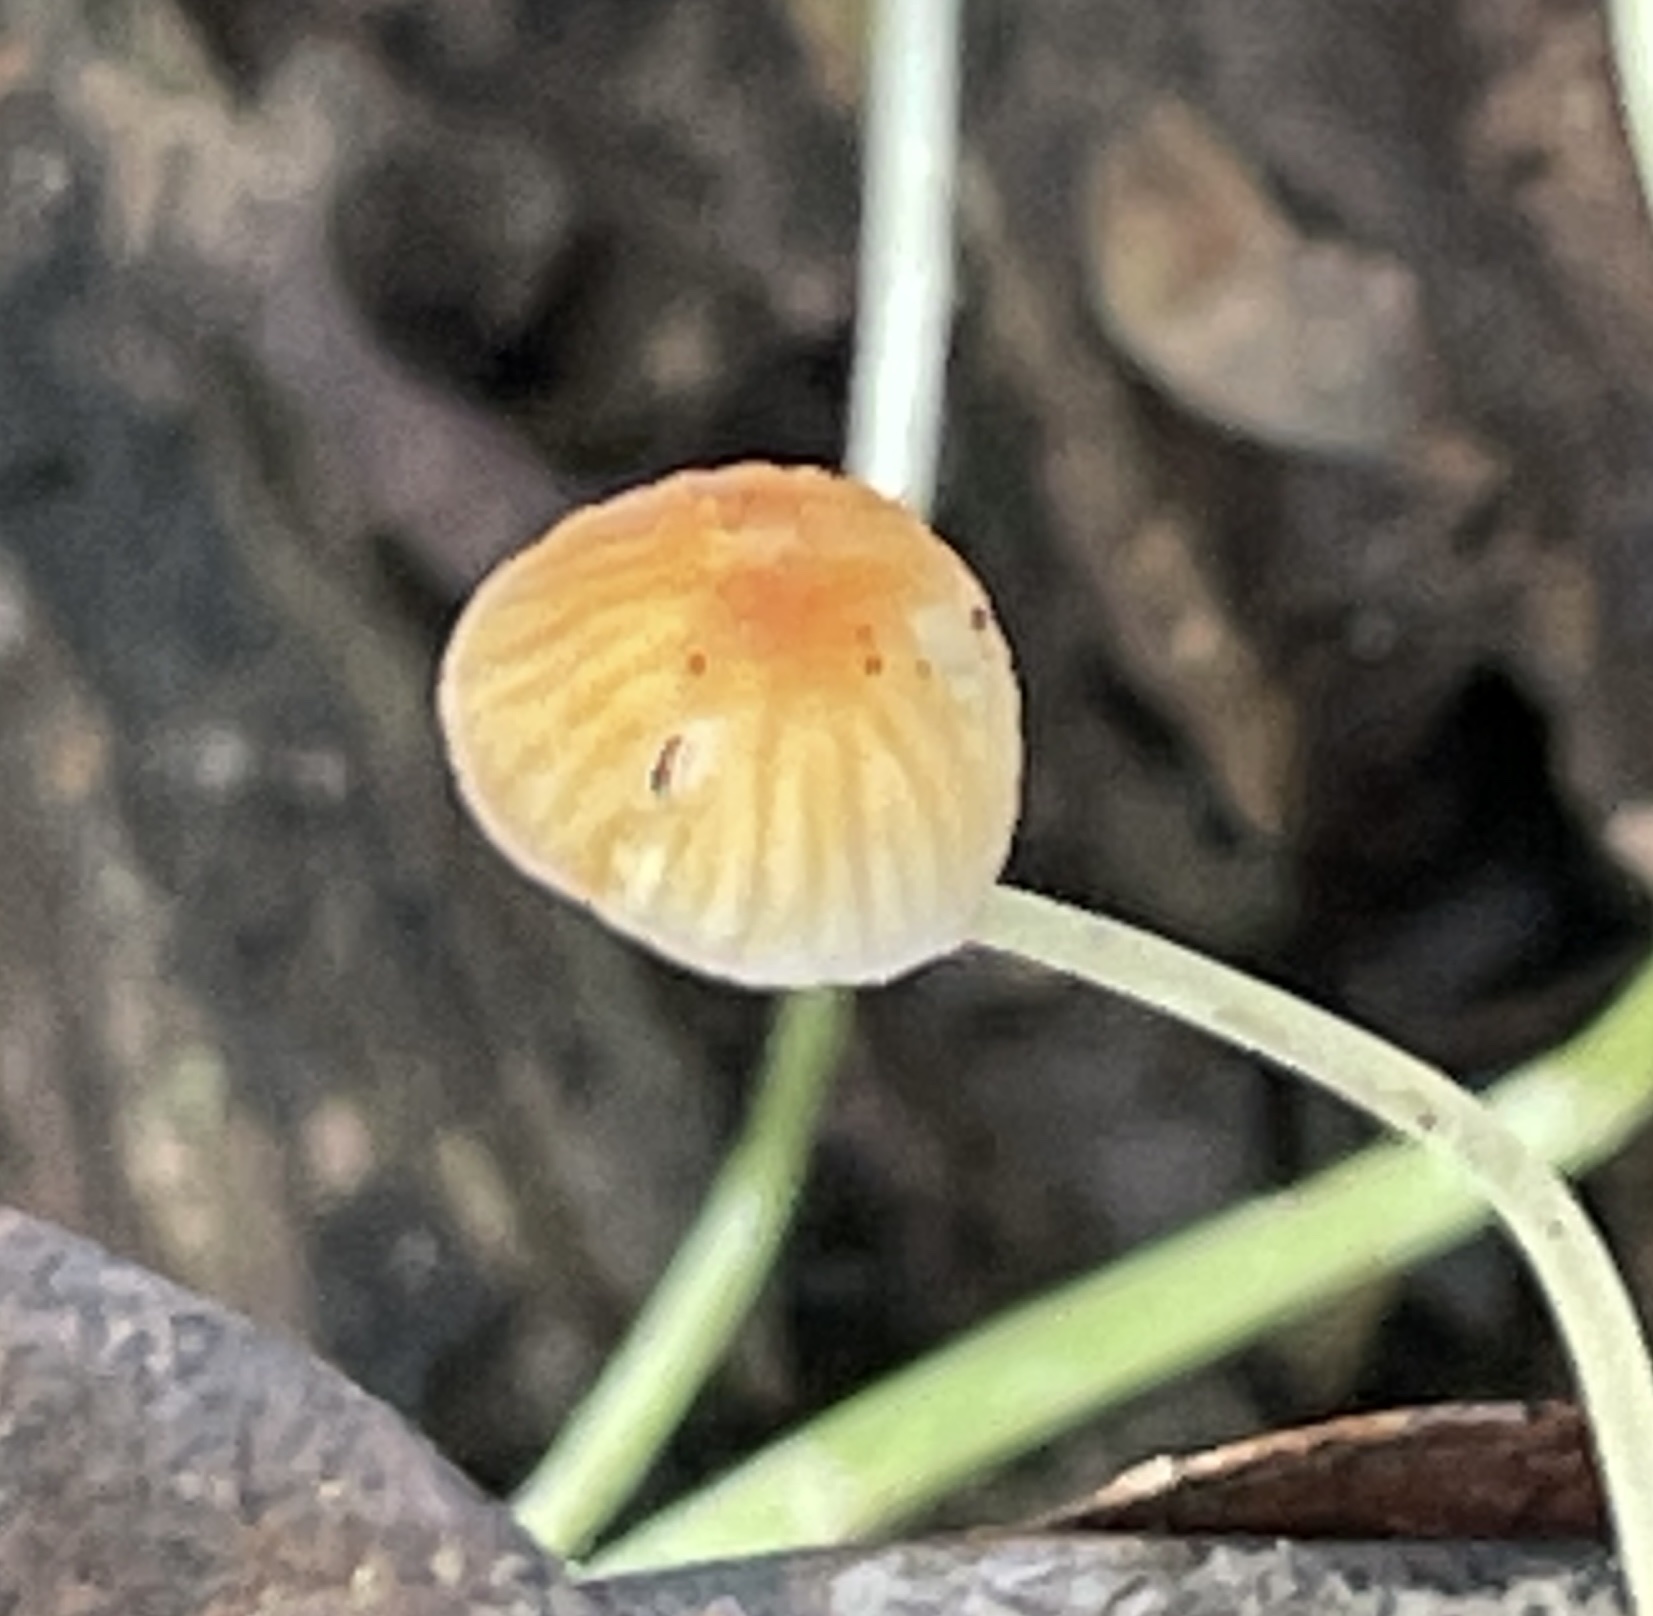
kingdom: Fungi
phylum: Basidiomycota
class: Agaricomycetes
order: Agaricales
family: Mycenaceae
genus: Mycena
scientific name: Mycena acicula
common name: Orange bonnet
